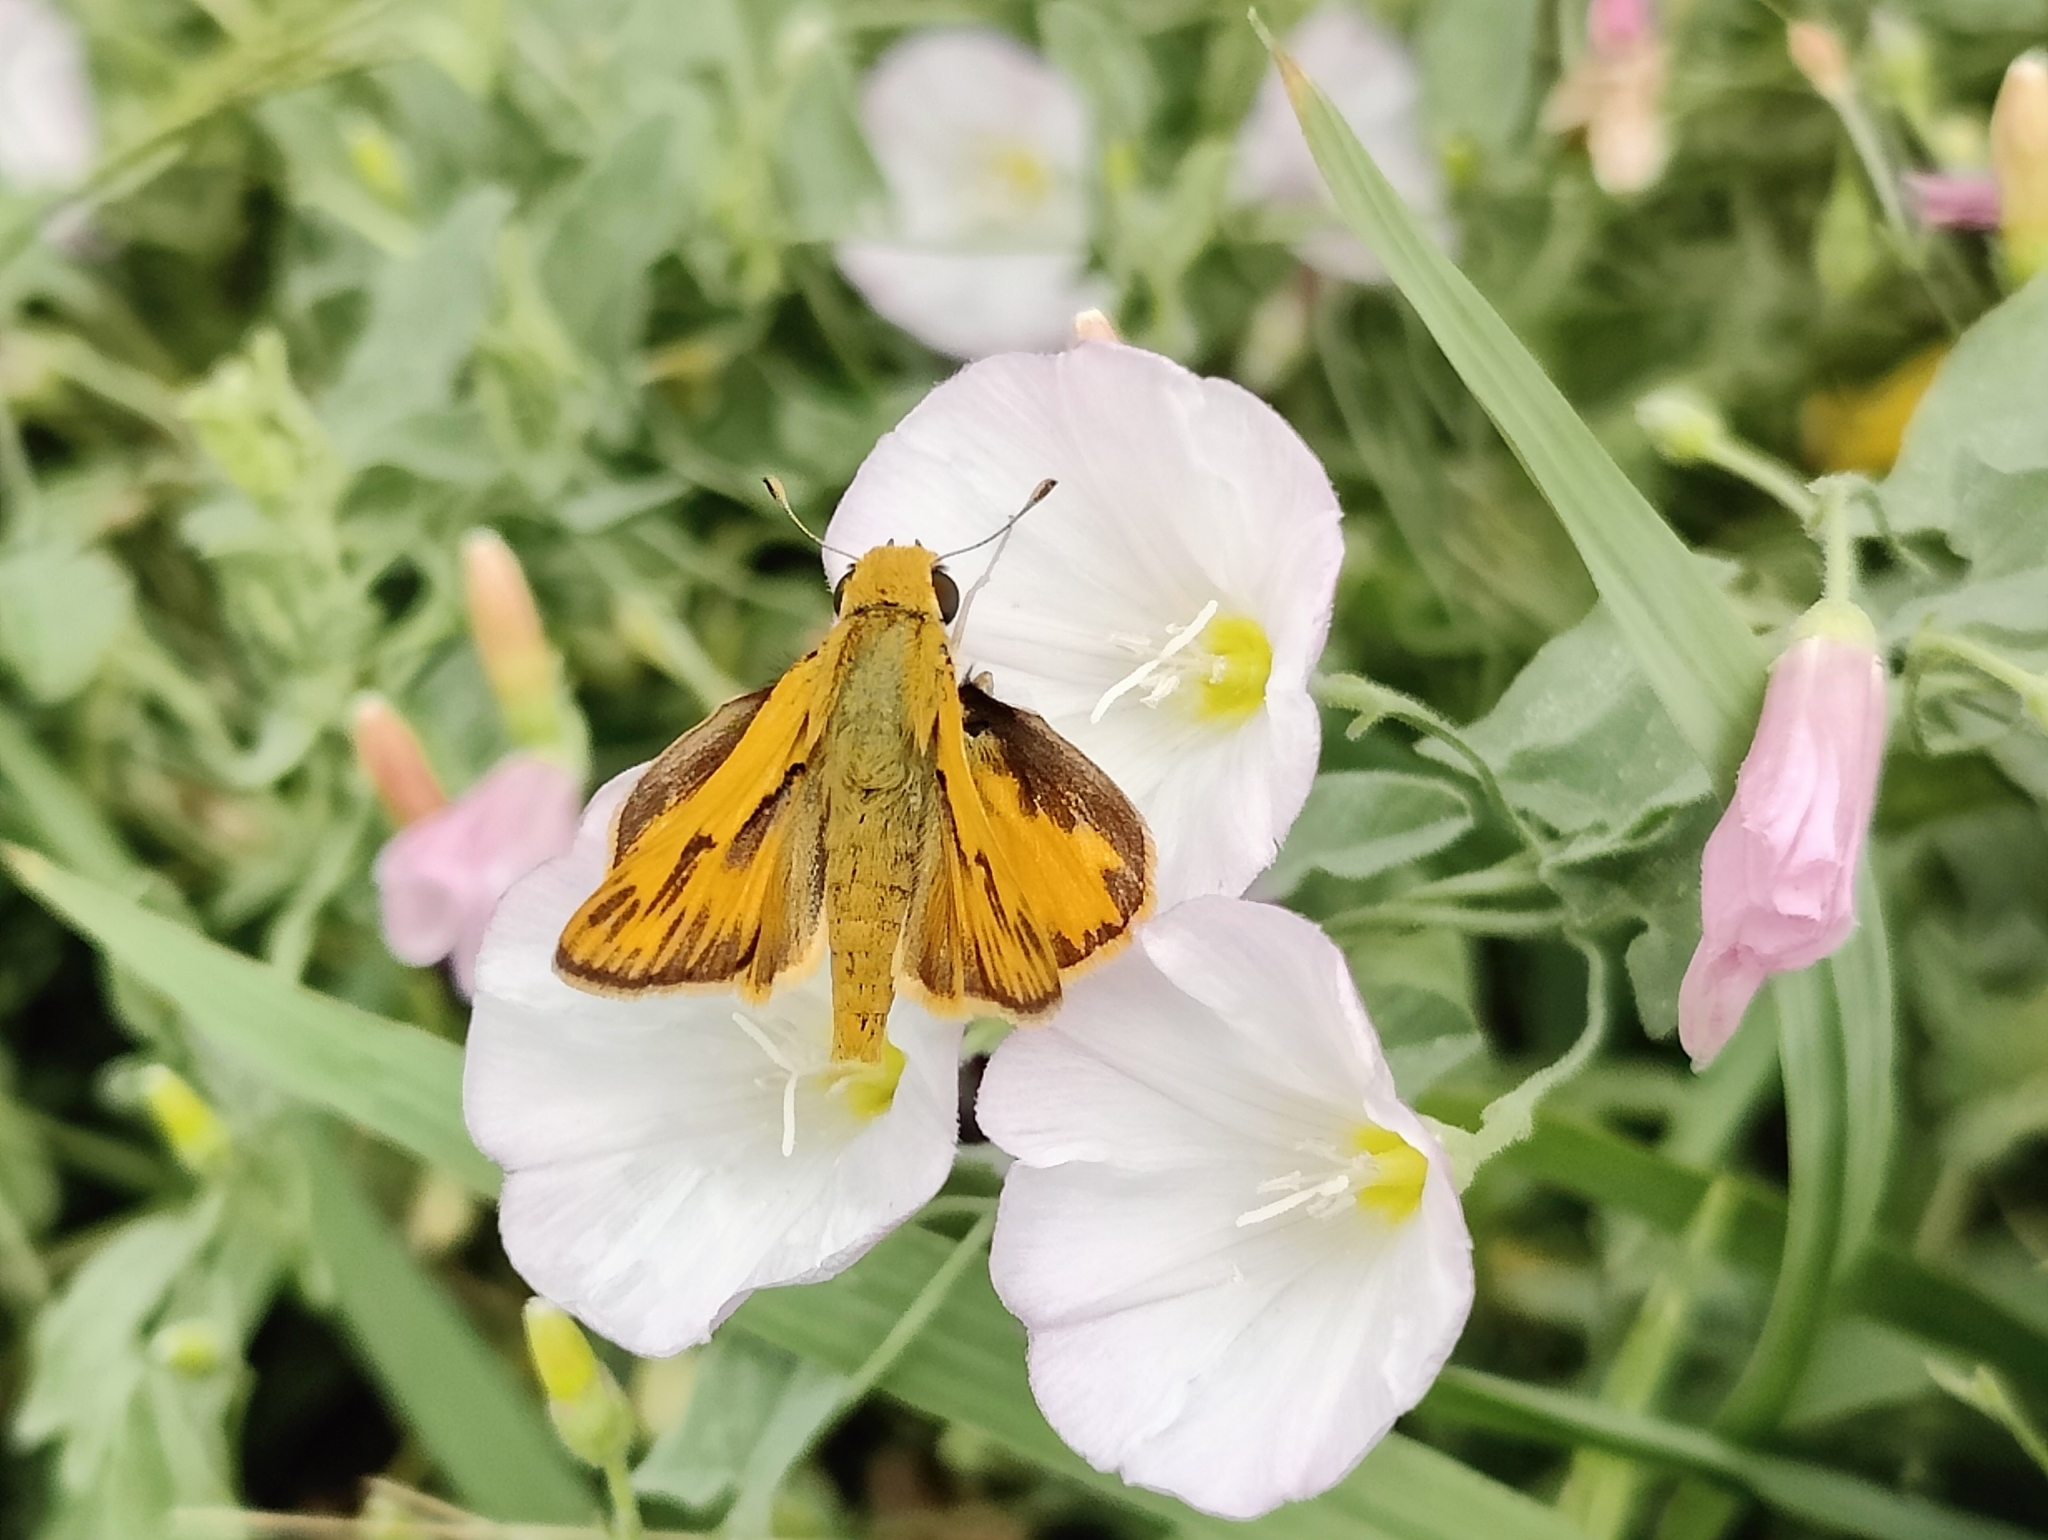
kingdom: Animalia
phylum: Arthropoda
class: Insecta
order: Lepidoptera
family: Hesperiidae
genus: Hylephila
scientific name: Hylephila phyleus
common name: Fiery skipper
